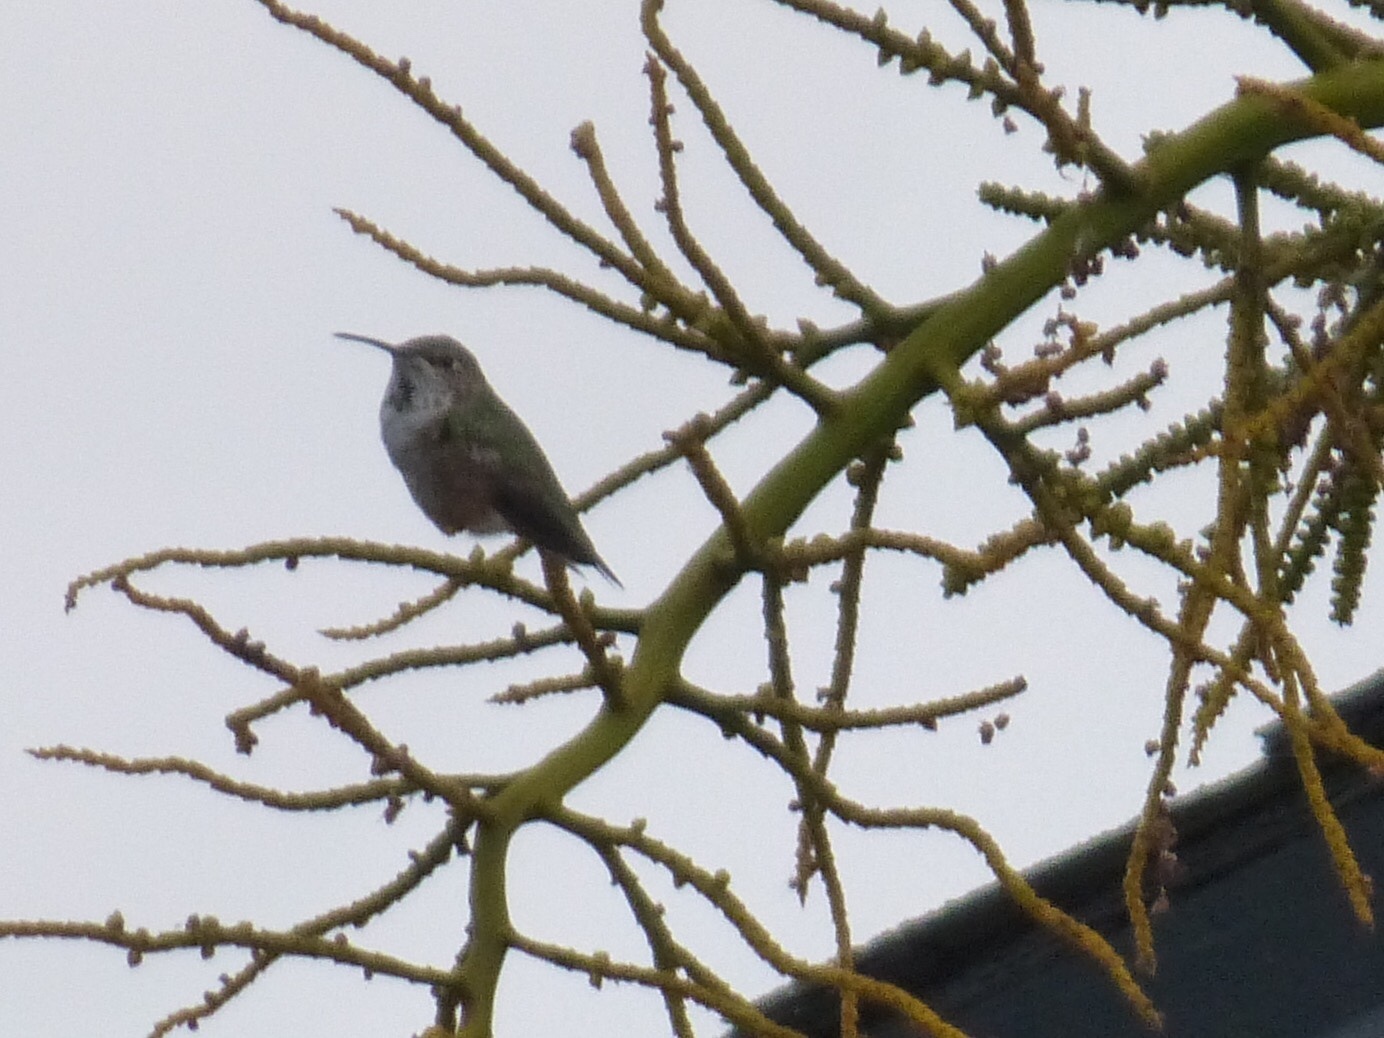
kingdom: Animalia
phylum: Chordata
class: Aves
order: Apodiformes
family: Trochilidae
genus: Selasphorus
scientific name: Selasphorus
